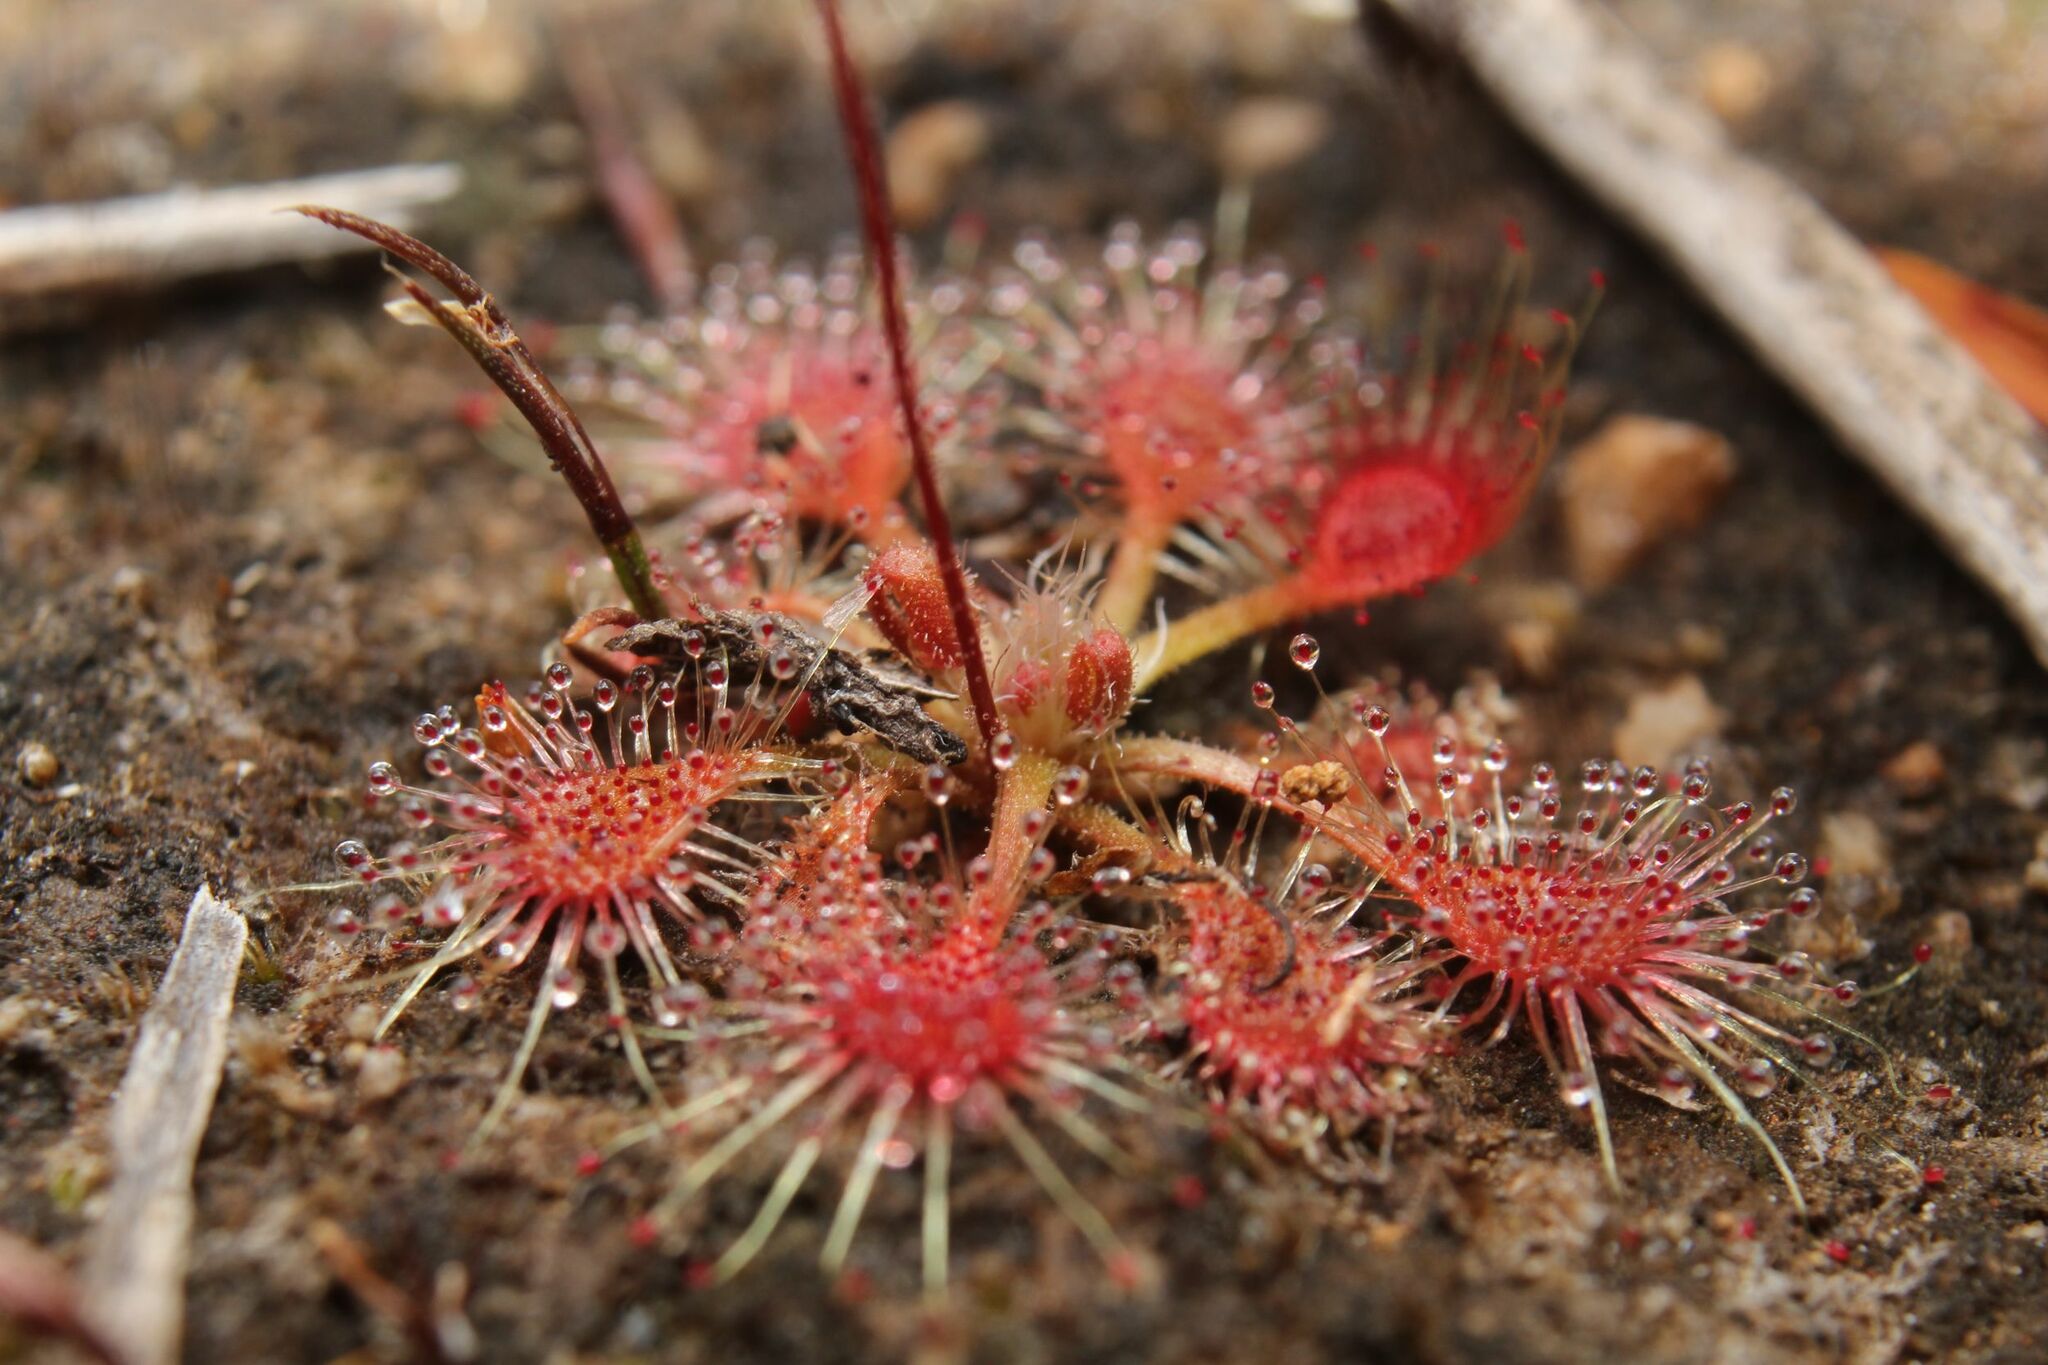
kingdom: Plantae
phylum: Tracheophyta
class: Magnoliopsida
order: Caryophyllales
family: Droseraceae
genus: Drosera
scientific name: Drosera nitidula
